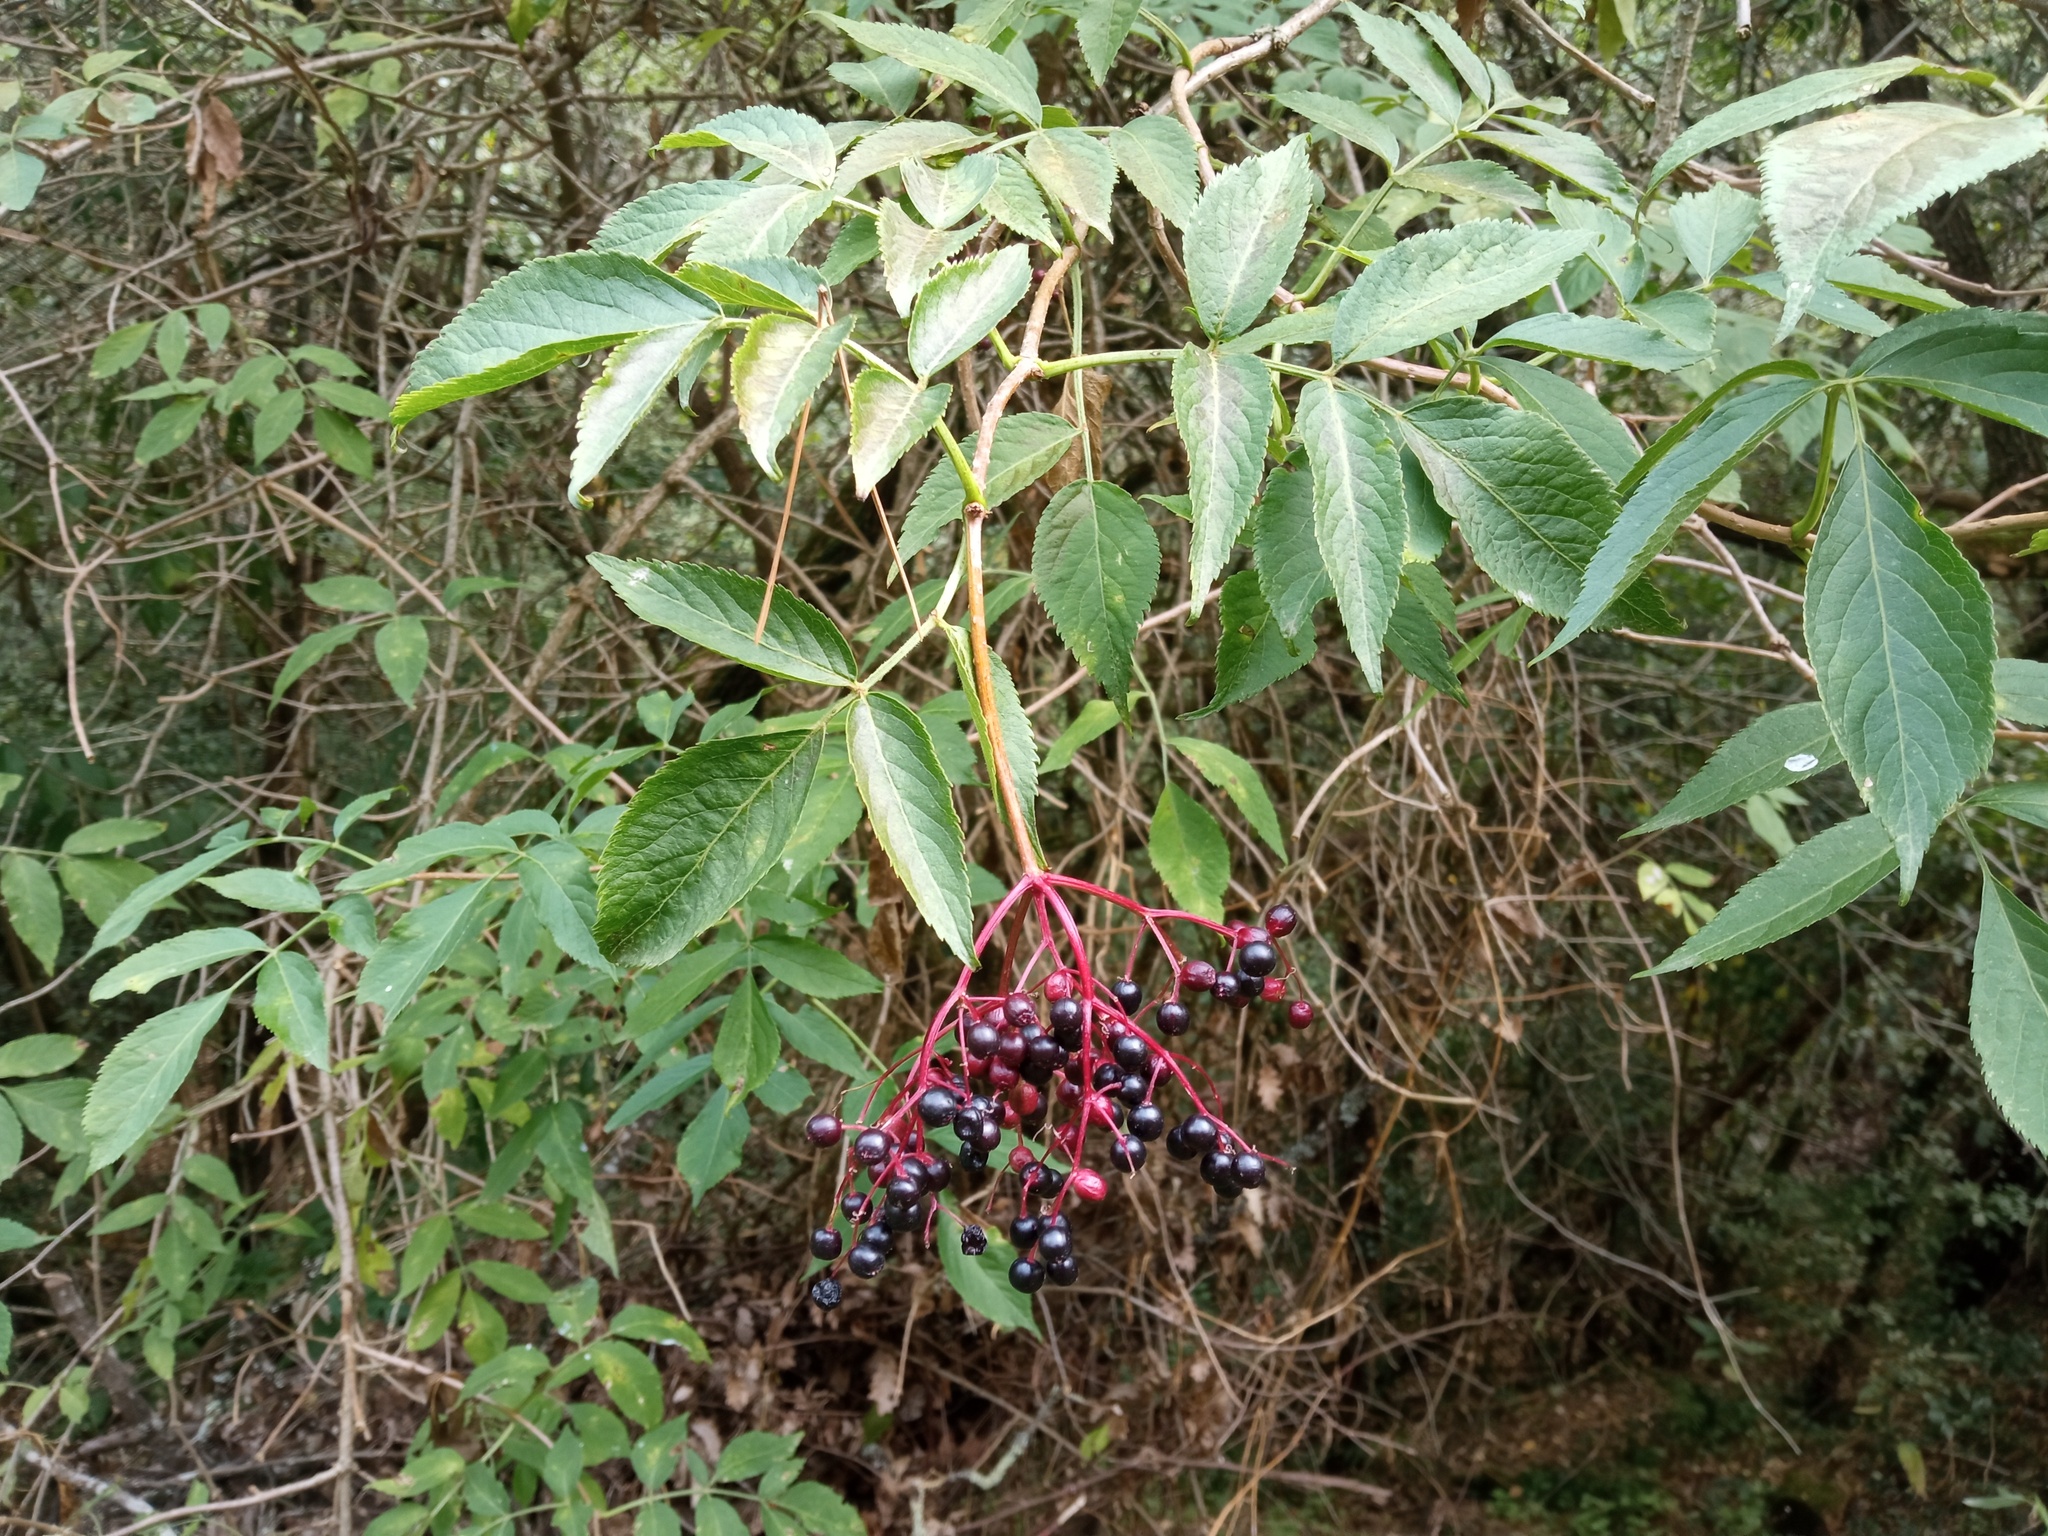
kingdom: Plantae
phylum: Tracheophyta
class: Magnoliopsida
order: Dipsacales
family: Viburnaceae
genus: Sambucus
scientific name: Sambucus nigra
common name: Elder
